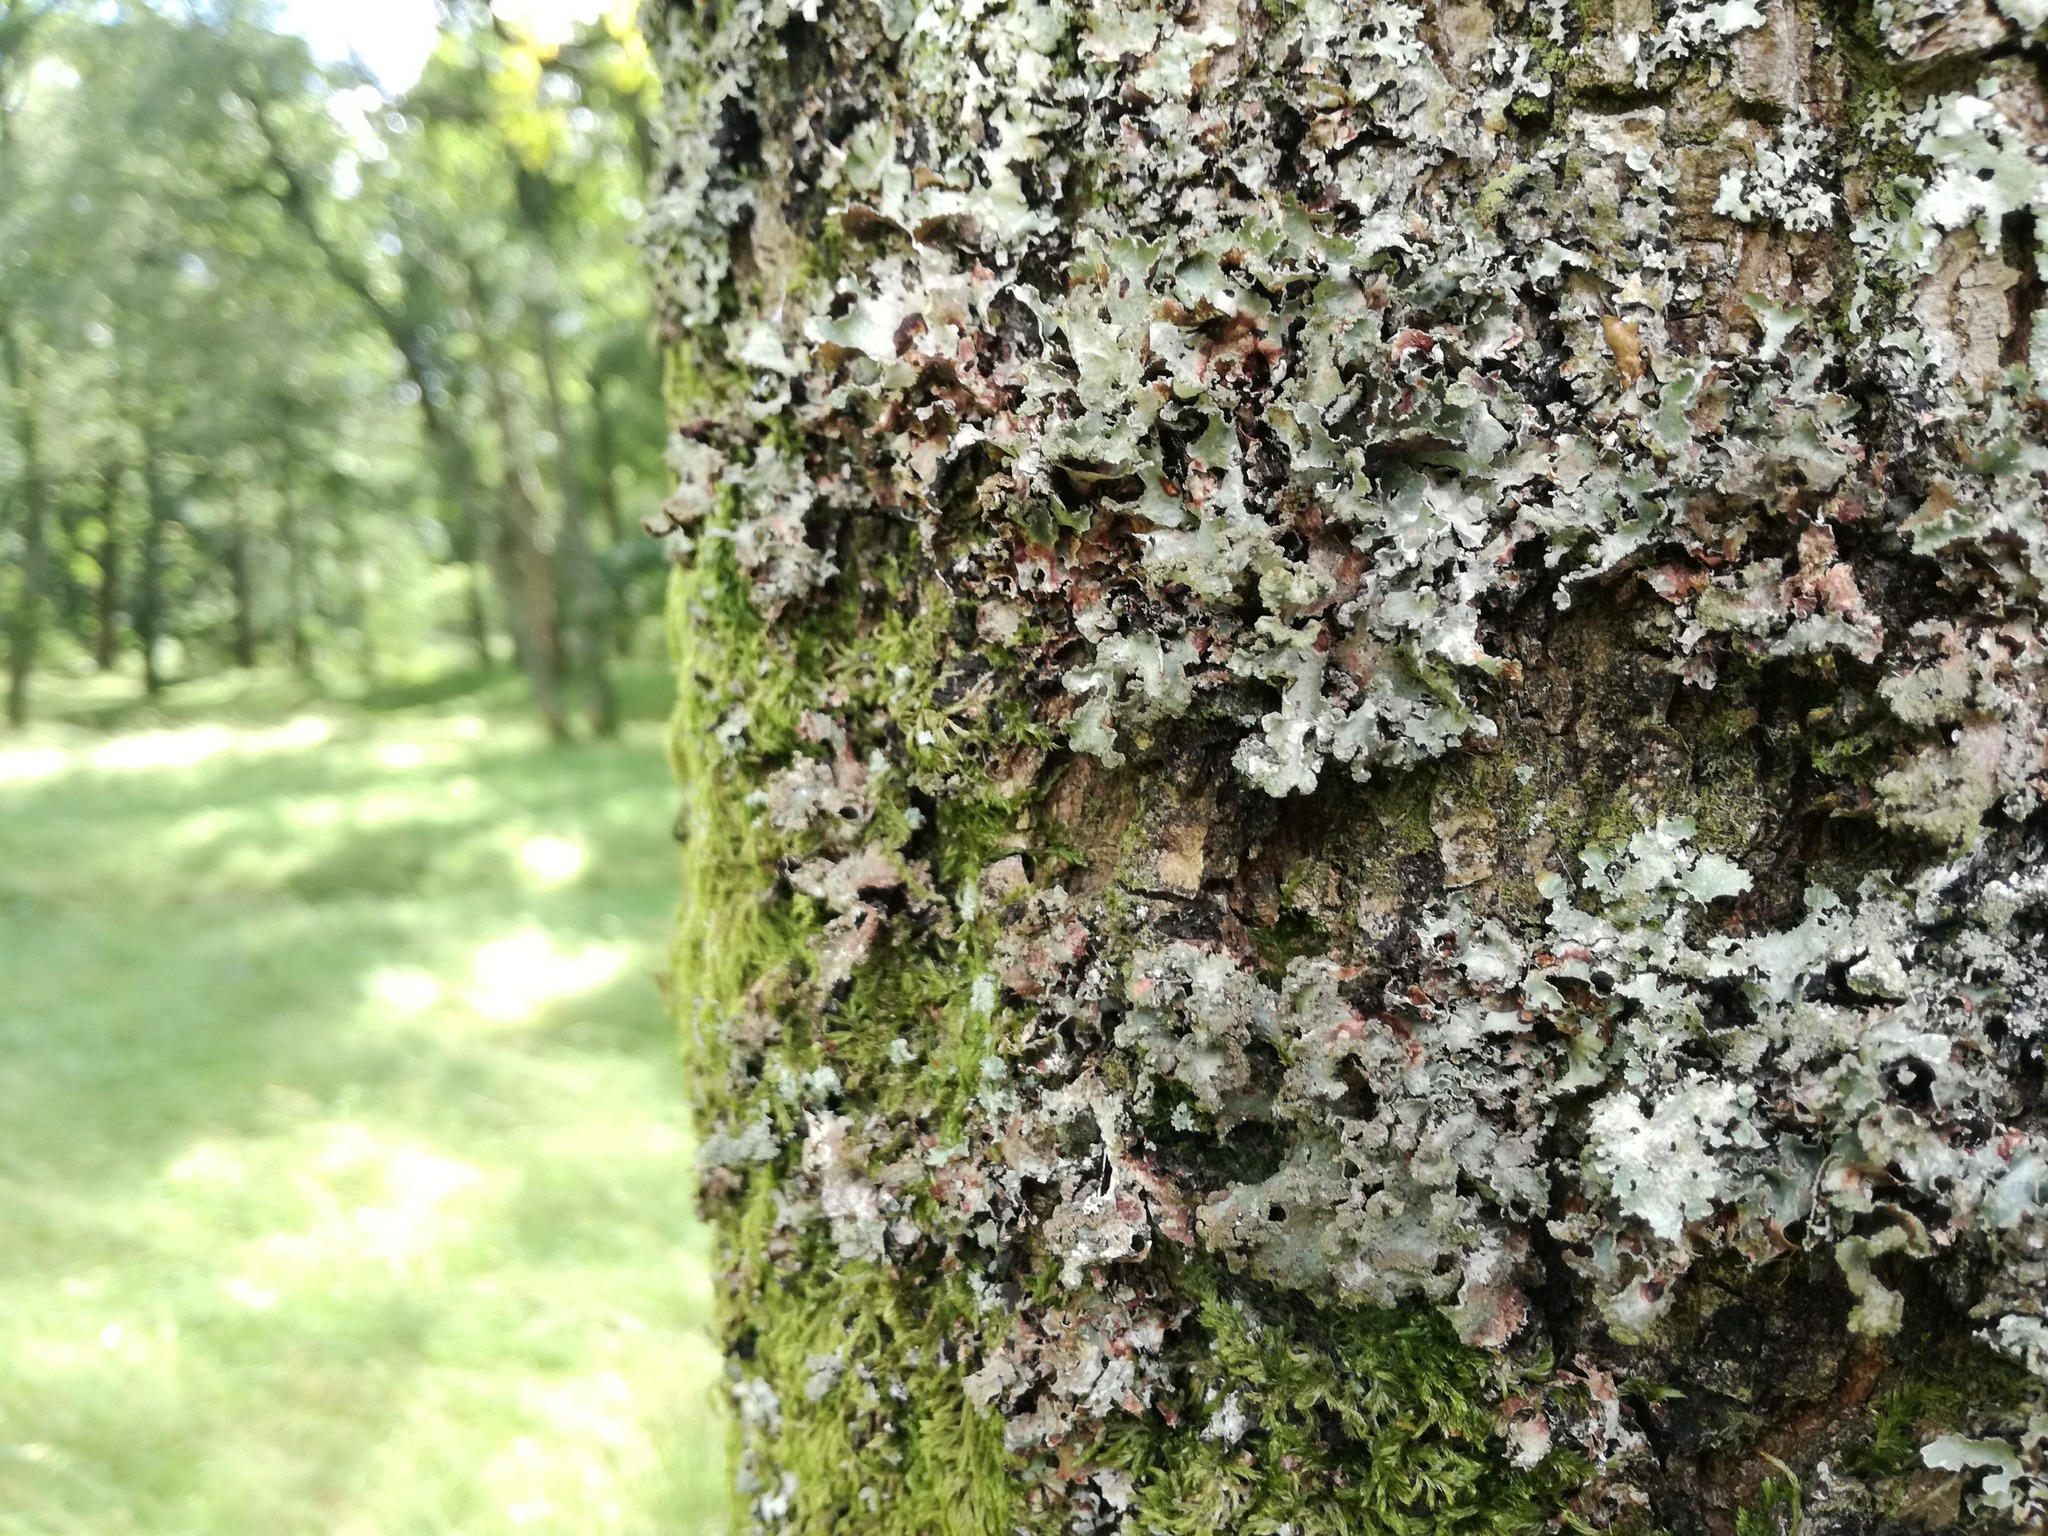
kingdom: Fungi
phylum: Ascomycota
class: Lecanoromycetes
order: Lecanorales
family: Parmeliaceae
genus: Platismatia
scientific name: Platismatia glauca
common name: Varied rag lichen
